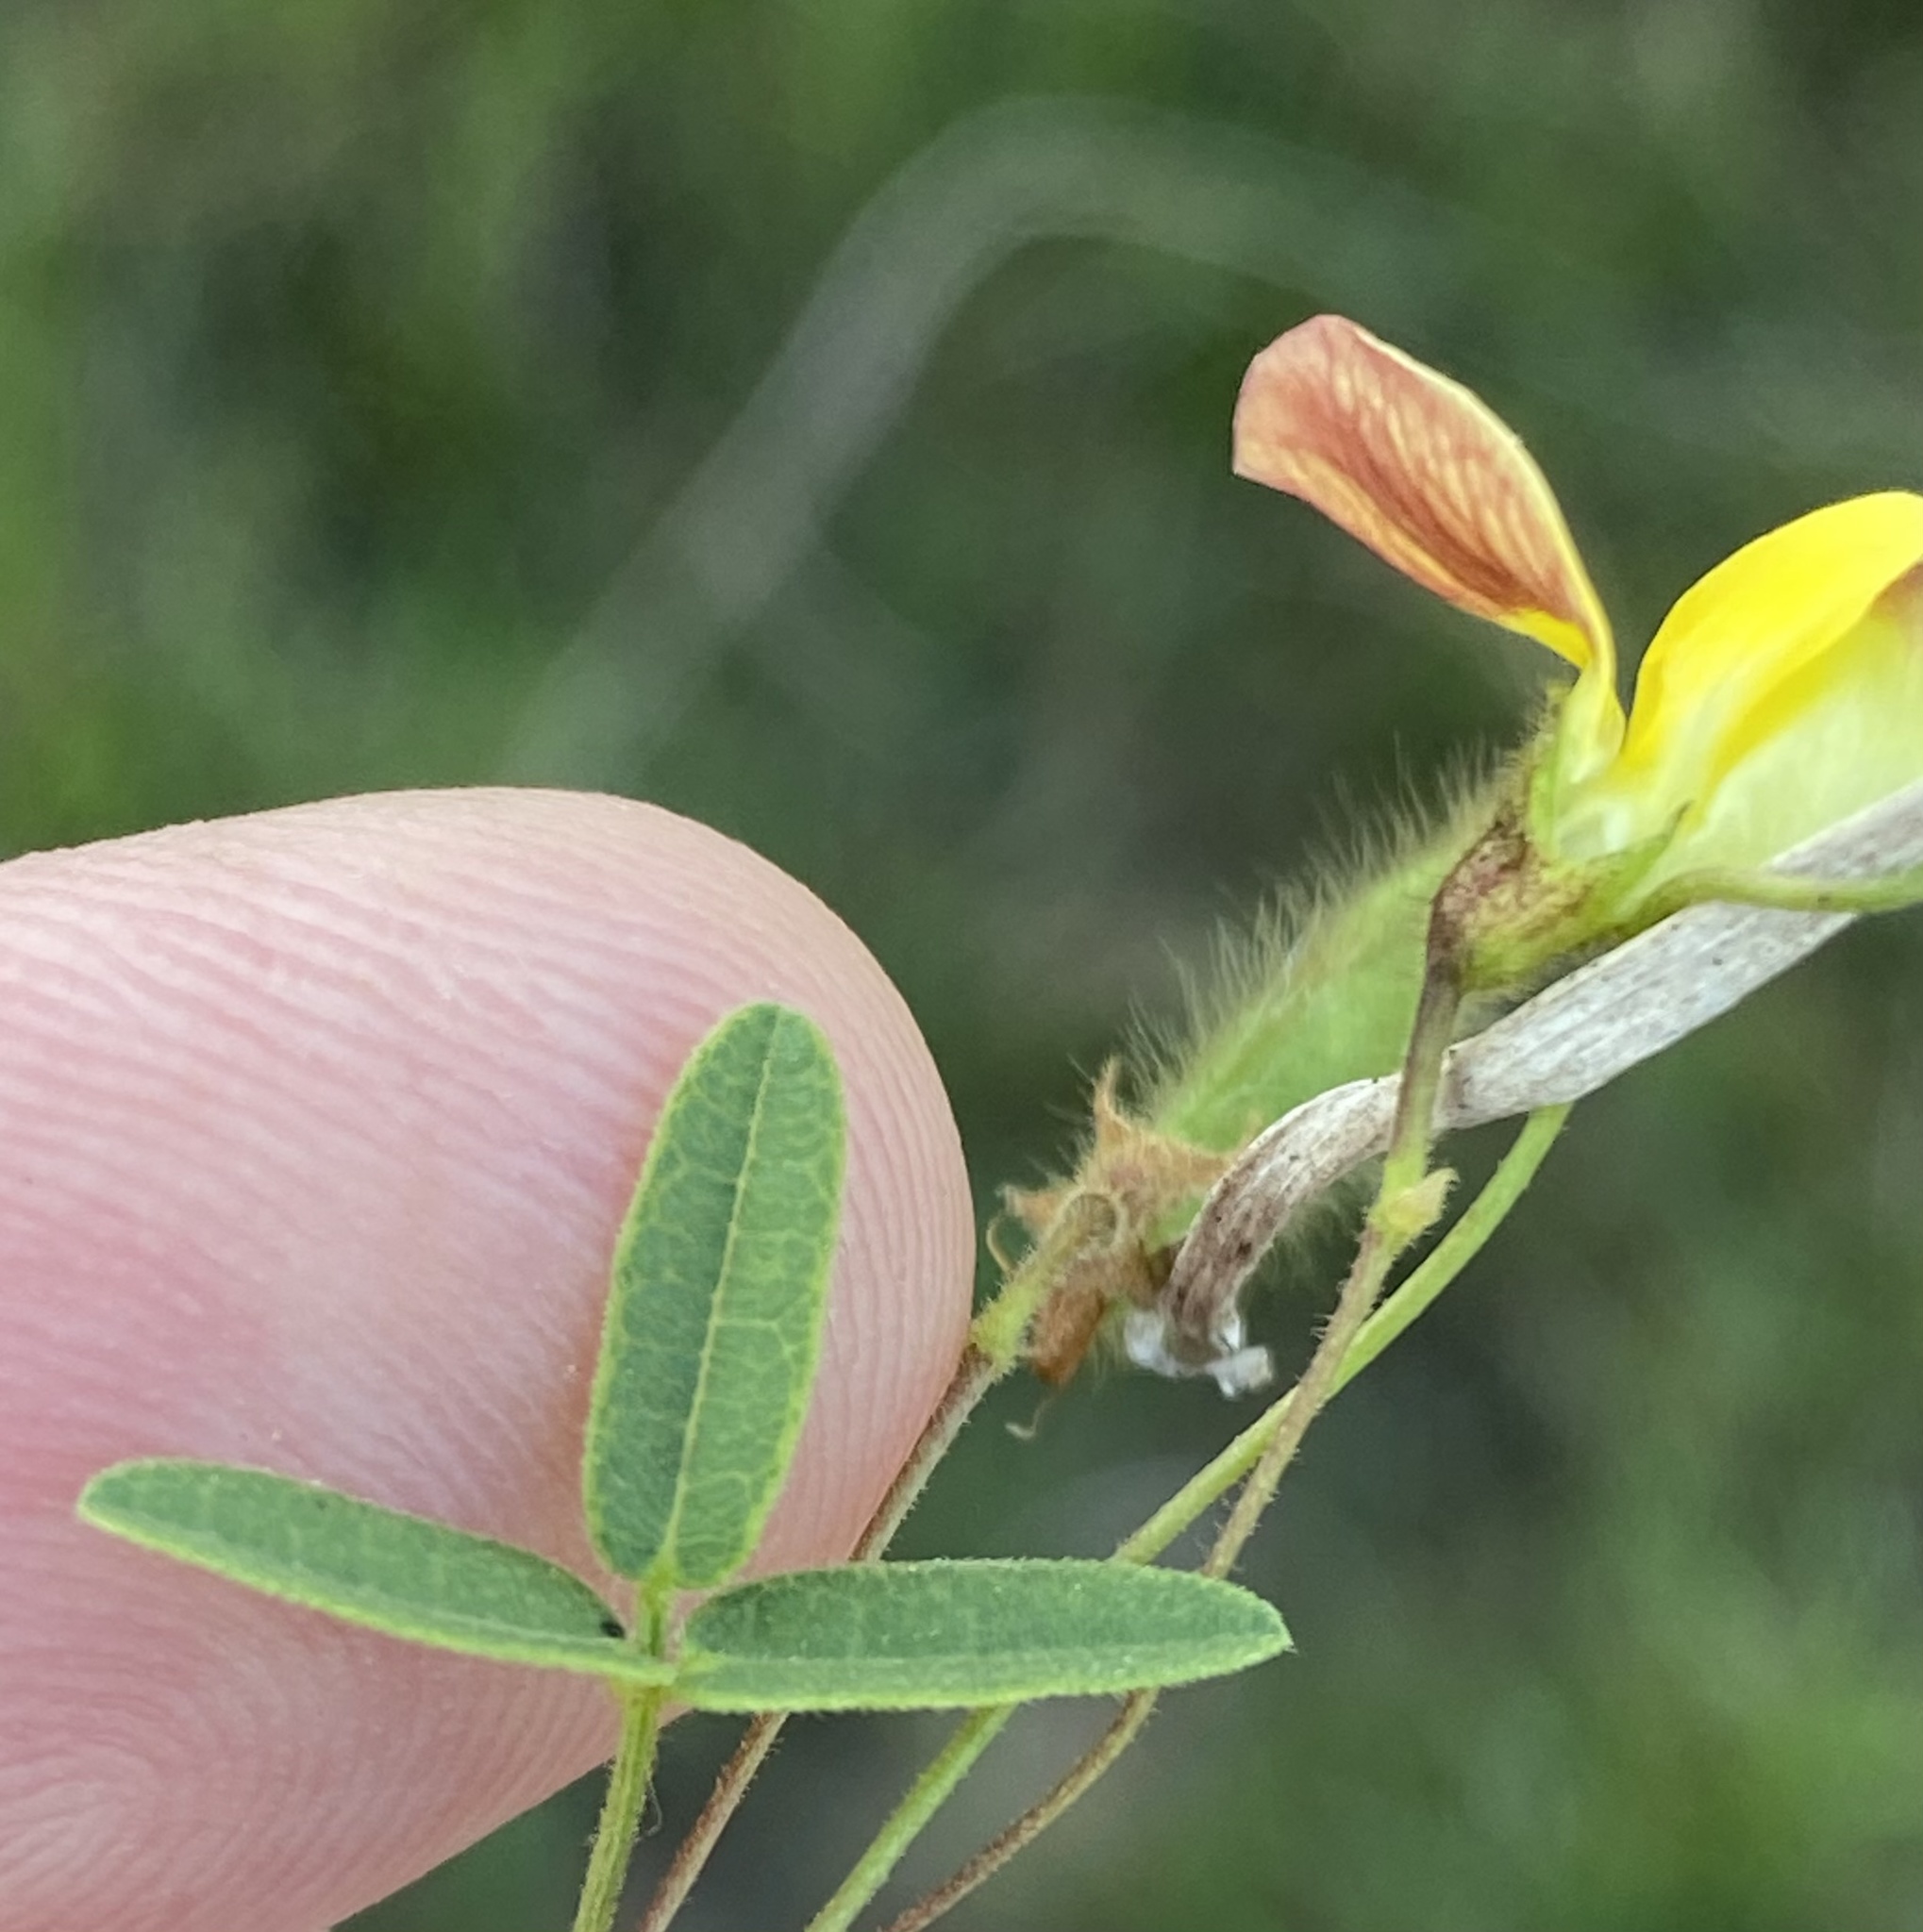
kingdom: Plantae
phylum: Tracheophyta
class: Magnoliopsida
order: Fabales
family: Fabaceae
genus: Rhynchosia
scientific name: Rhynchosia ciliata
